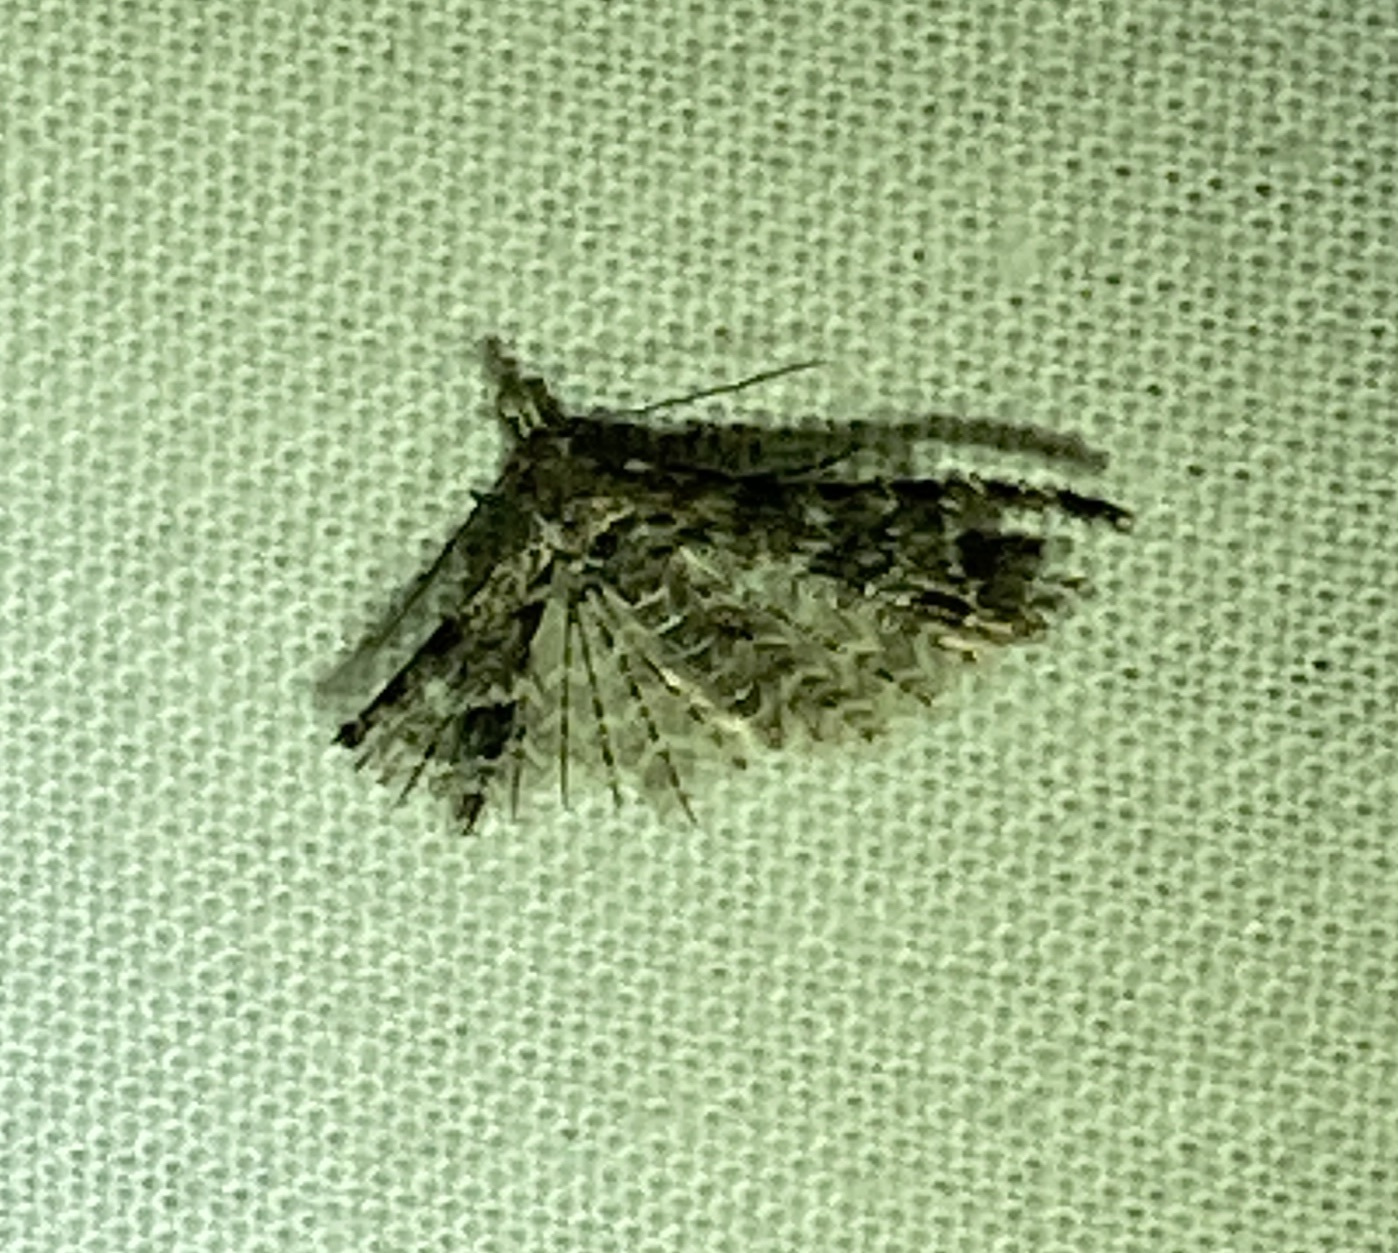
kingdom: Animalia
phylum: Arthropoda
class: Insecta
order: Lepidoptera
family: Alucitidae
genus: Alucita
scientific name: Alucita montana
